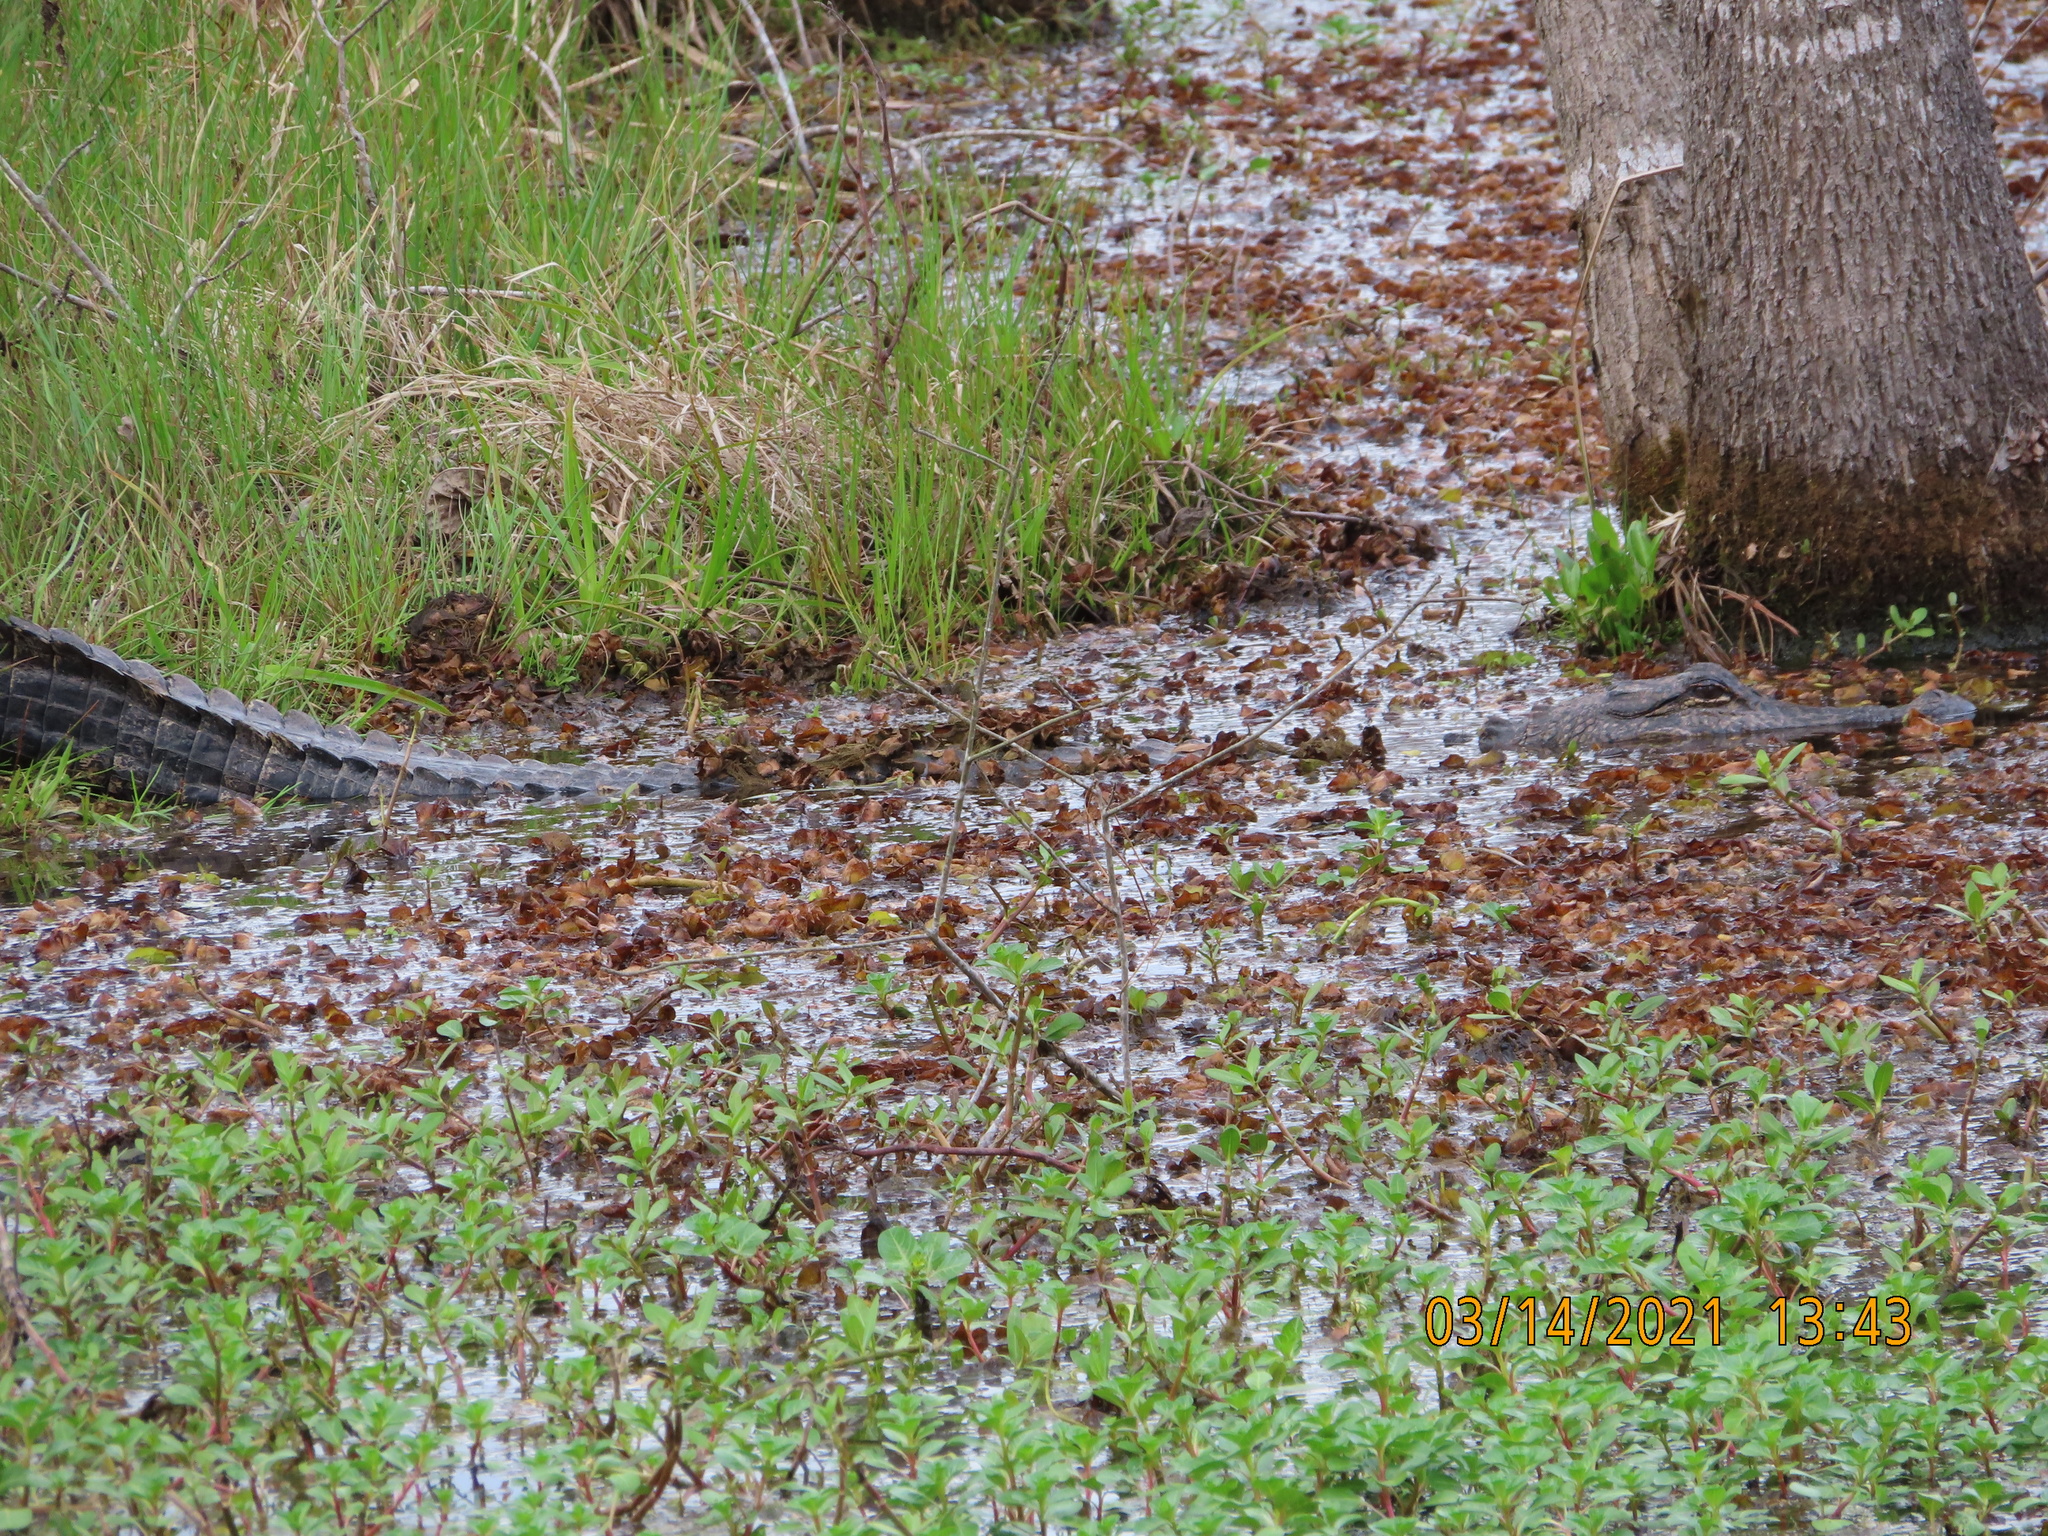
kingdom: Animalia
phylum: Chordata
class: Crocodylia
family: Alligatoridae
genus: Alligator
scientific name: Alligator mississippiensis
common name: American alligator
